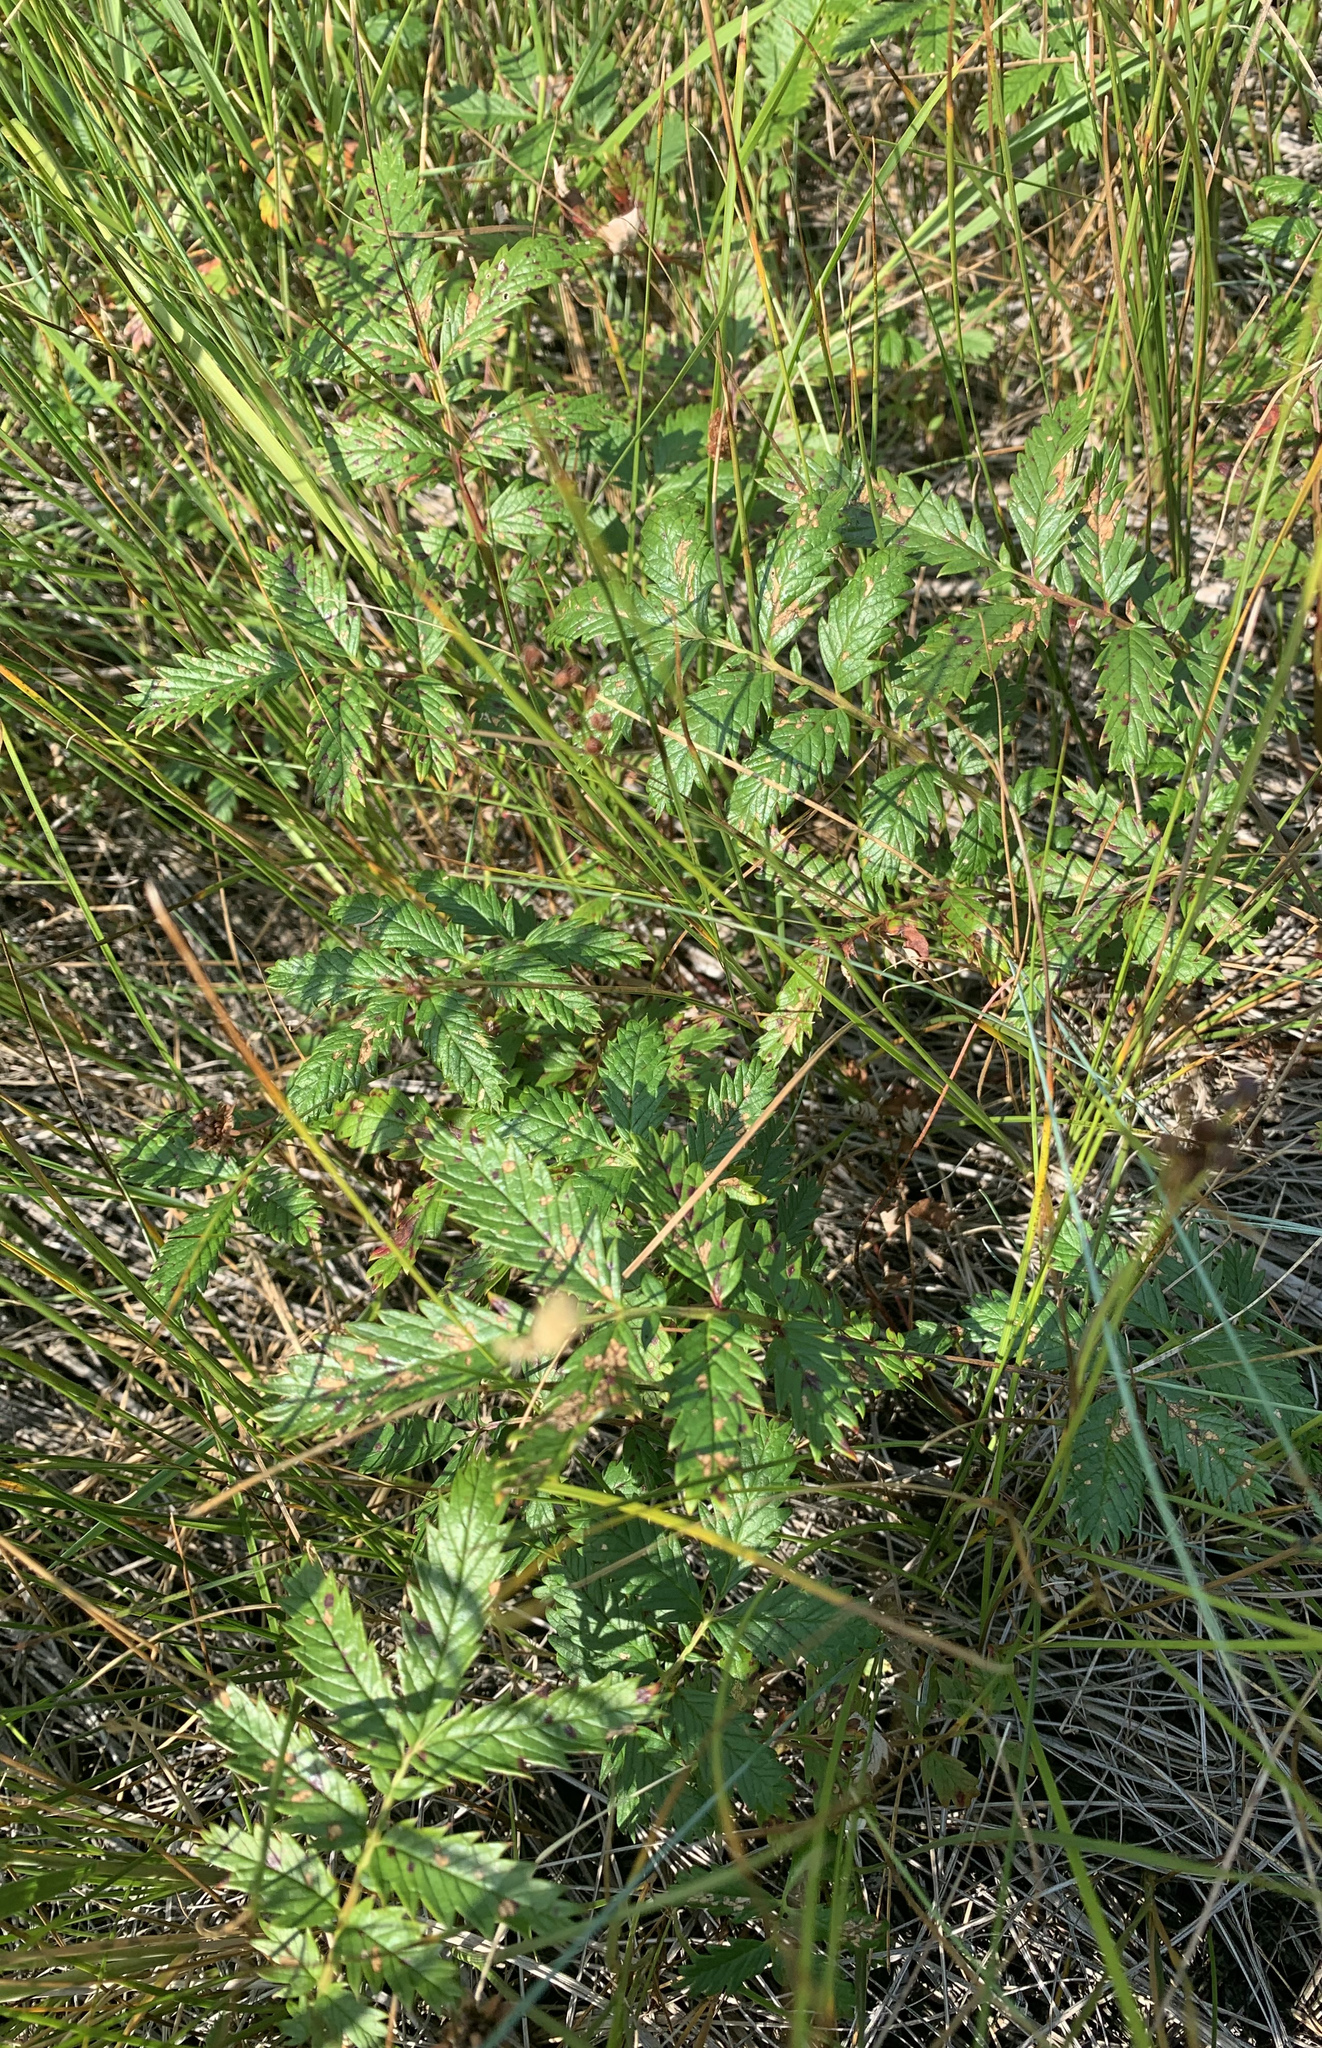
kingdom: Plantae
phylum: Tracheophyta
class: Magnoliopsida
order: Rosales
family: Rosaceae
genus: Argentina
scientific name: Argentina anserina
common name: Common silverweed
